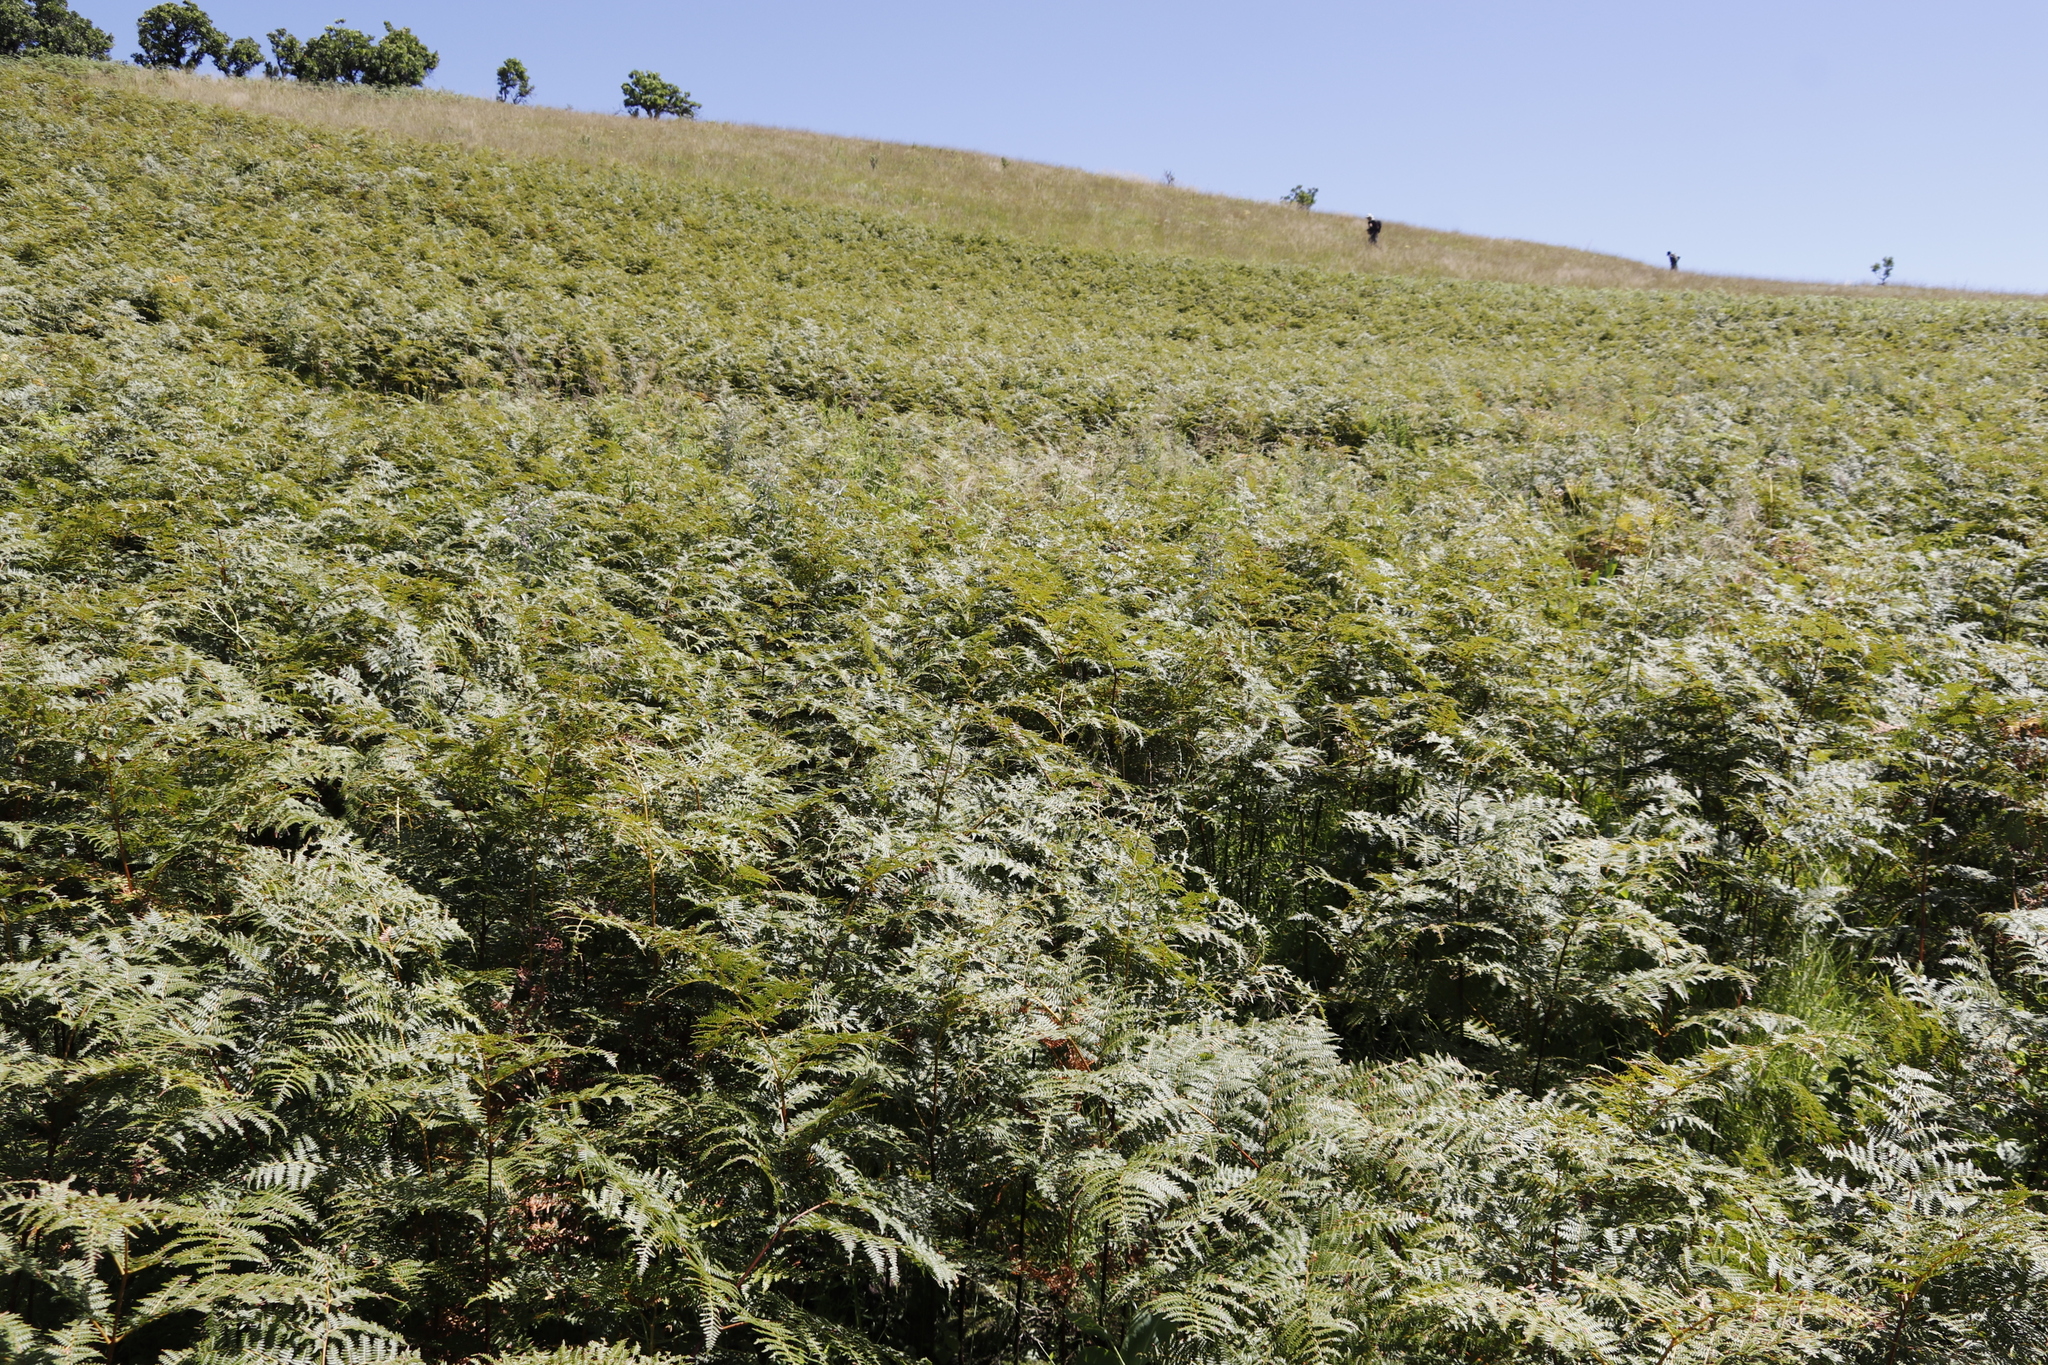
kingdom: Plantae
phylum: Tracheophyta
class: Polypodiopsida
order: Polypodiales
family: Dennstaedtiaceae
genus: Pteridium
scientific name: Pteridium aquilinum
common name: Bracken
